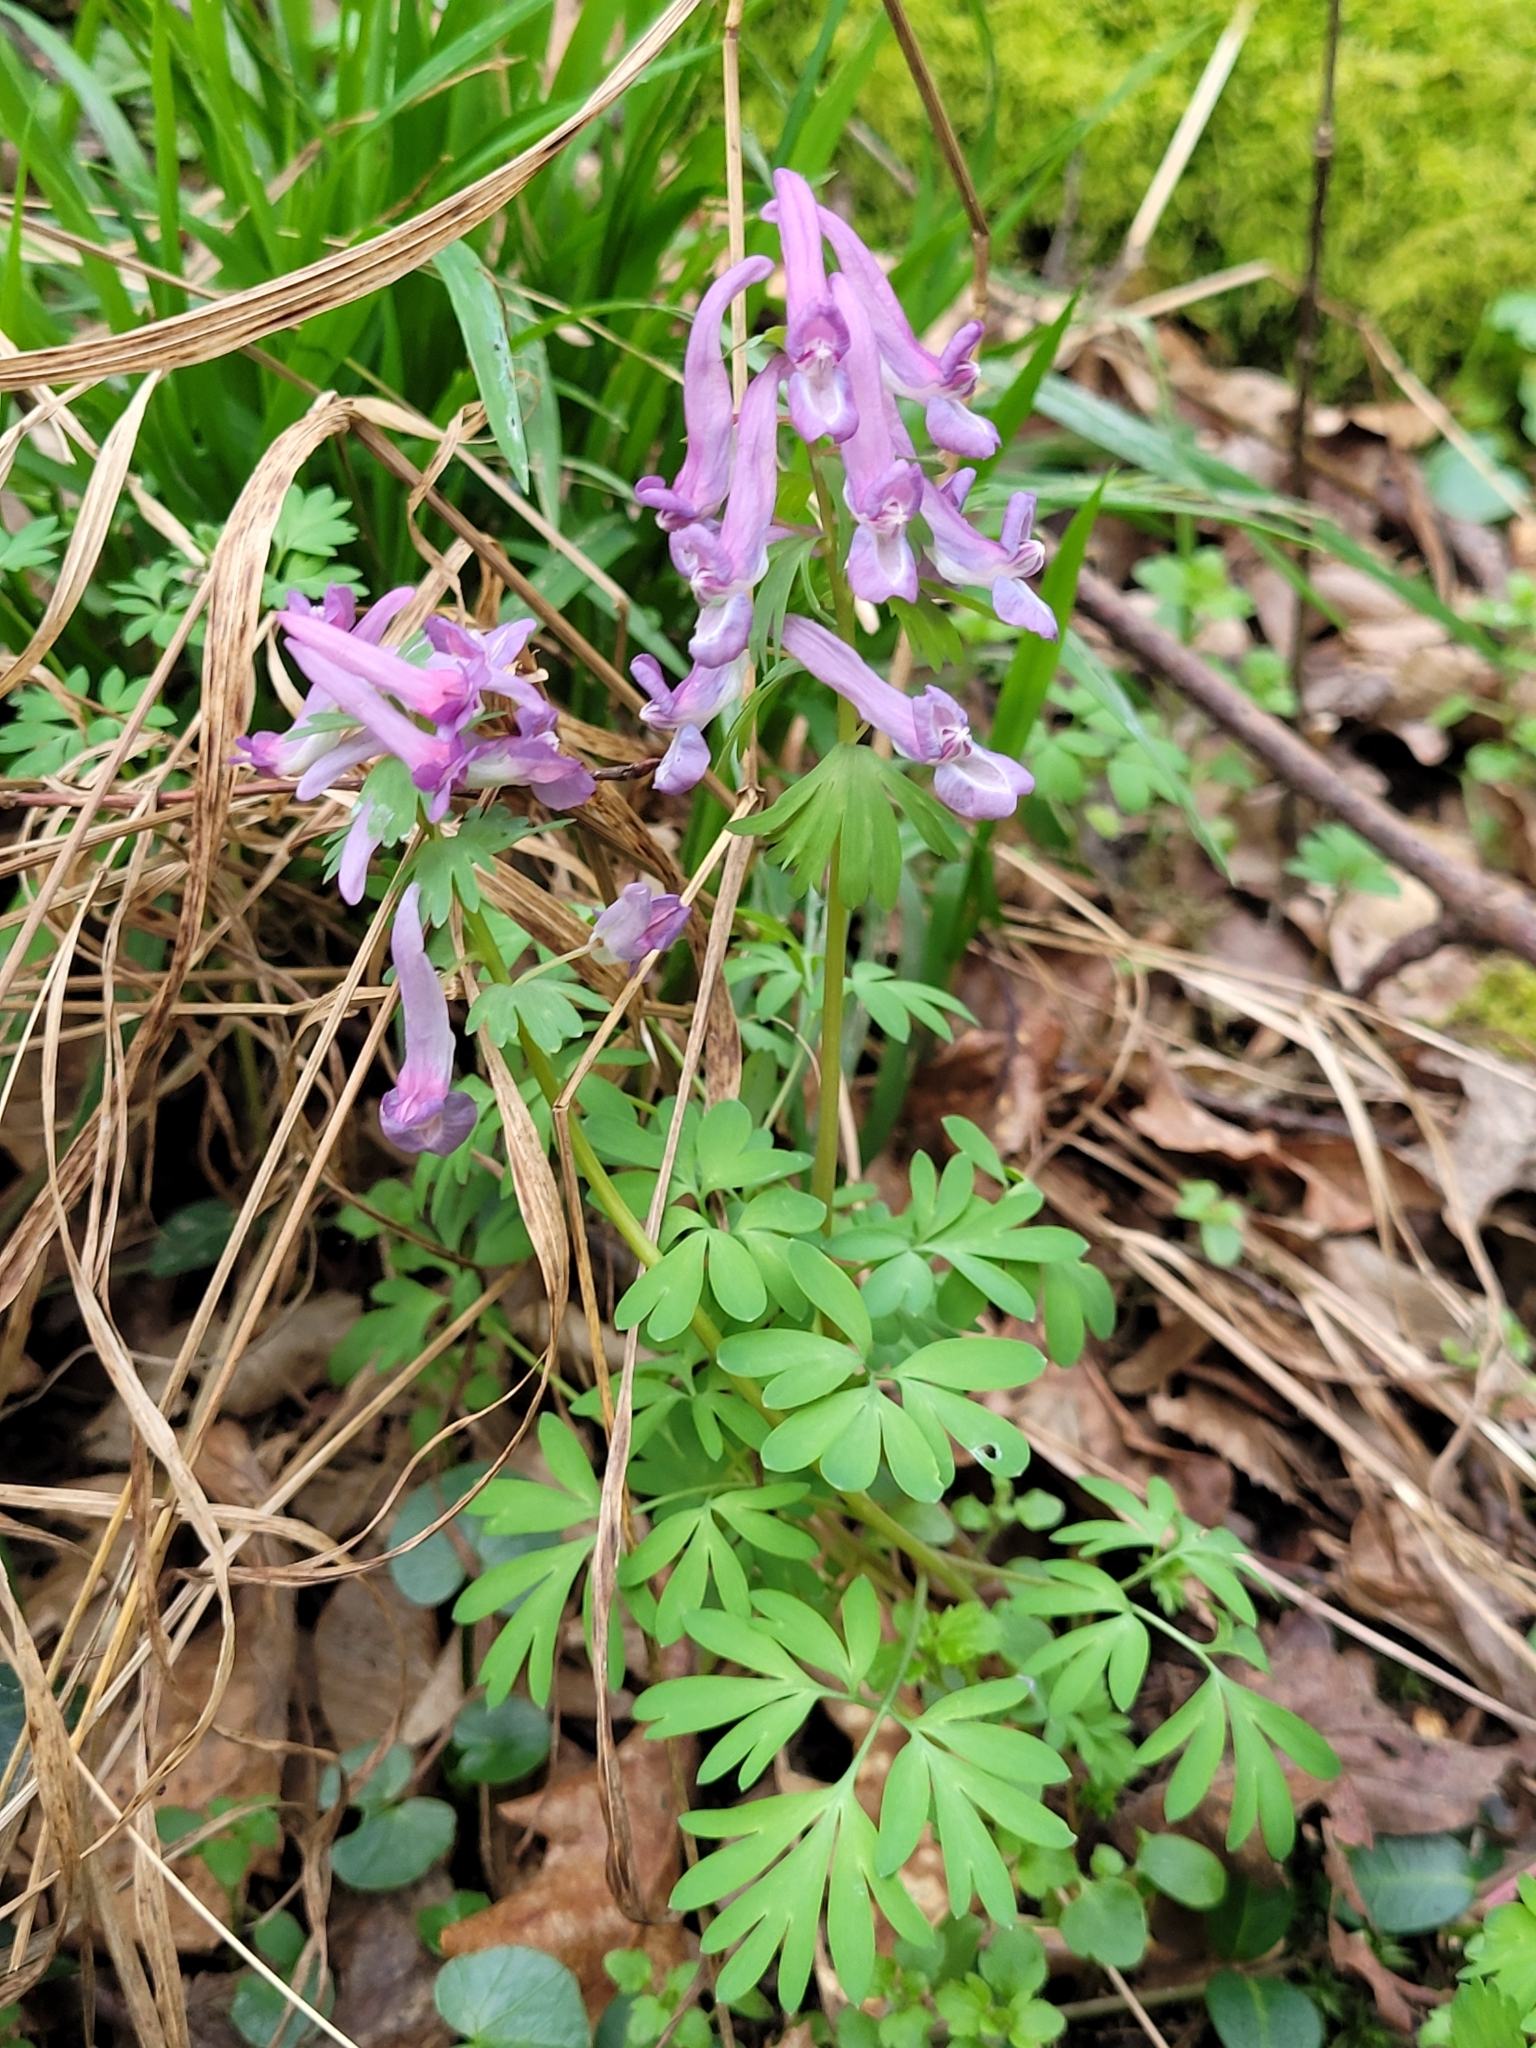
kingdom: Plantae
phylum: Tracheophyta
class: Magnoliopsida
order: Ranunculales
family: Papaveraceae
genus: Corydalis
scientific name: Corydalis solida
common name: Bird-in-a-bush
